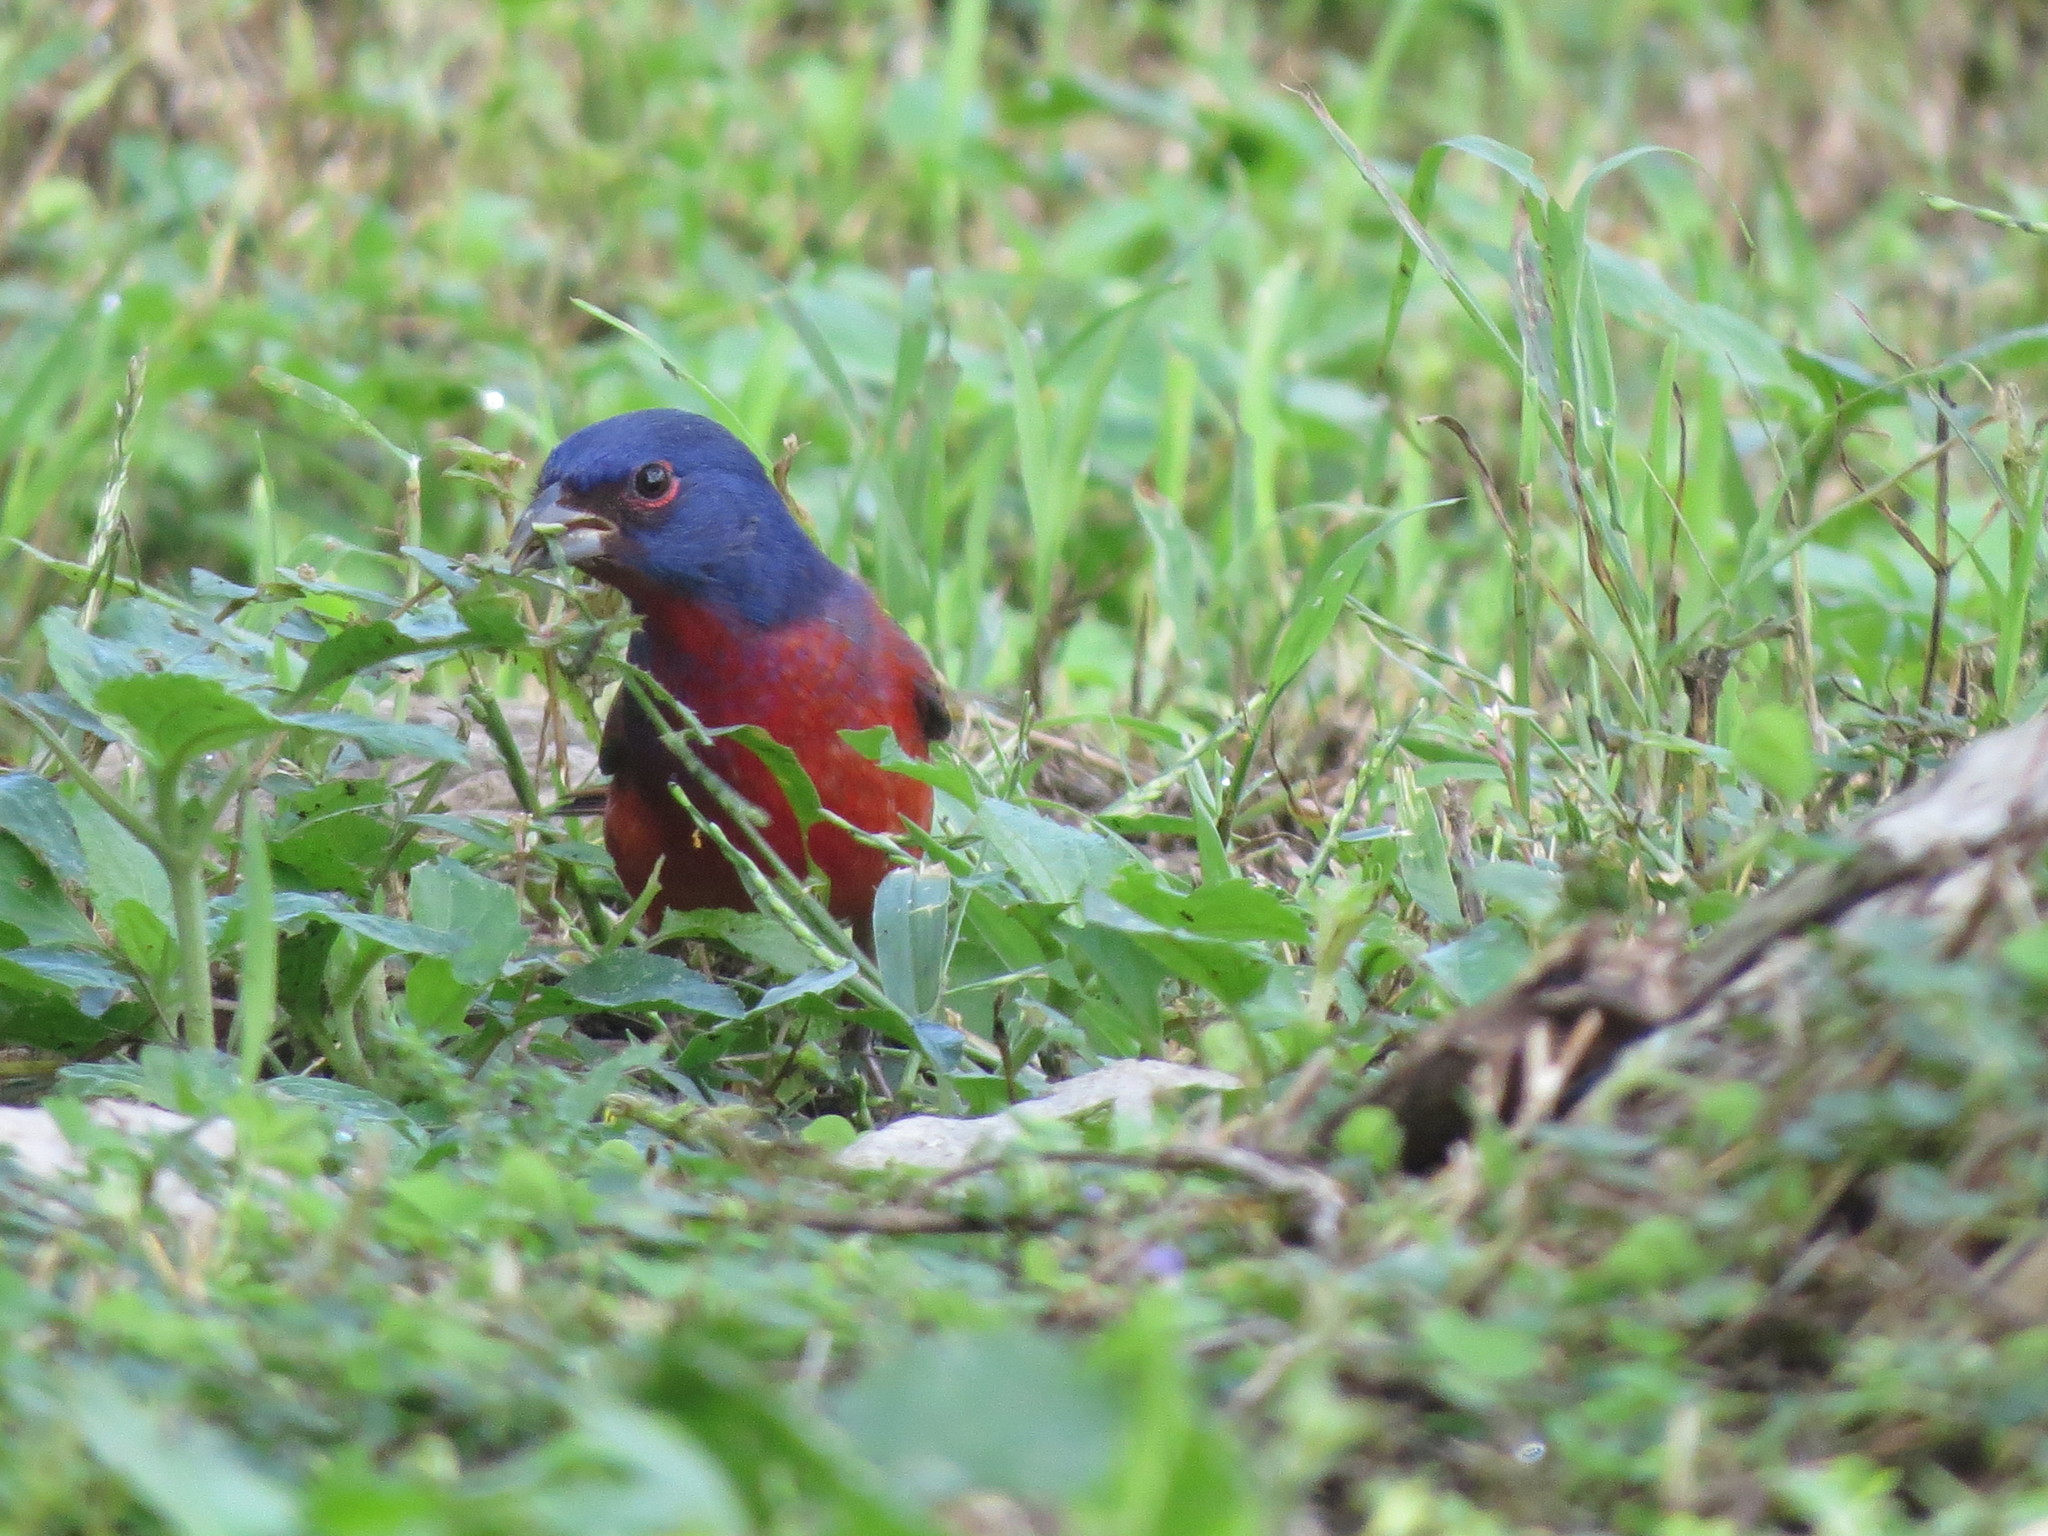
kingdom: Animalia
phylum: Chordata
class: Aves
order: Passeriformes
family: Cardinalidae
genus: Passerina
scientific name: Passerina ciris
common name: Painted bunting
